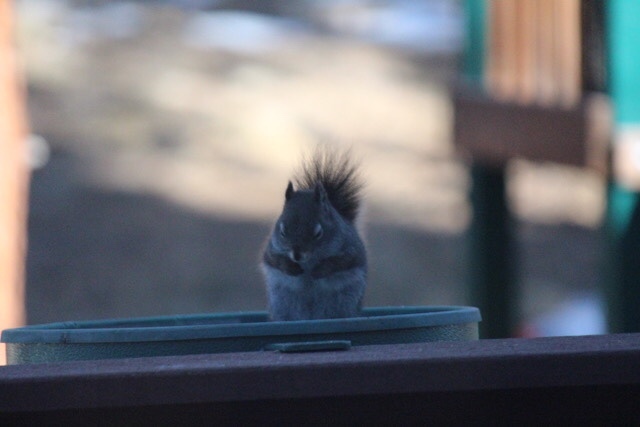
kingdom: Animalia
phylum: Chordata
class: Mammalia
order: Rodentia
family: Sciuridae
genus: Tamiasciurus
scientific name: Tamiasciurus hudsonicus
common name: Red squirrel
